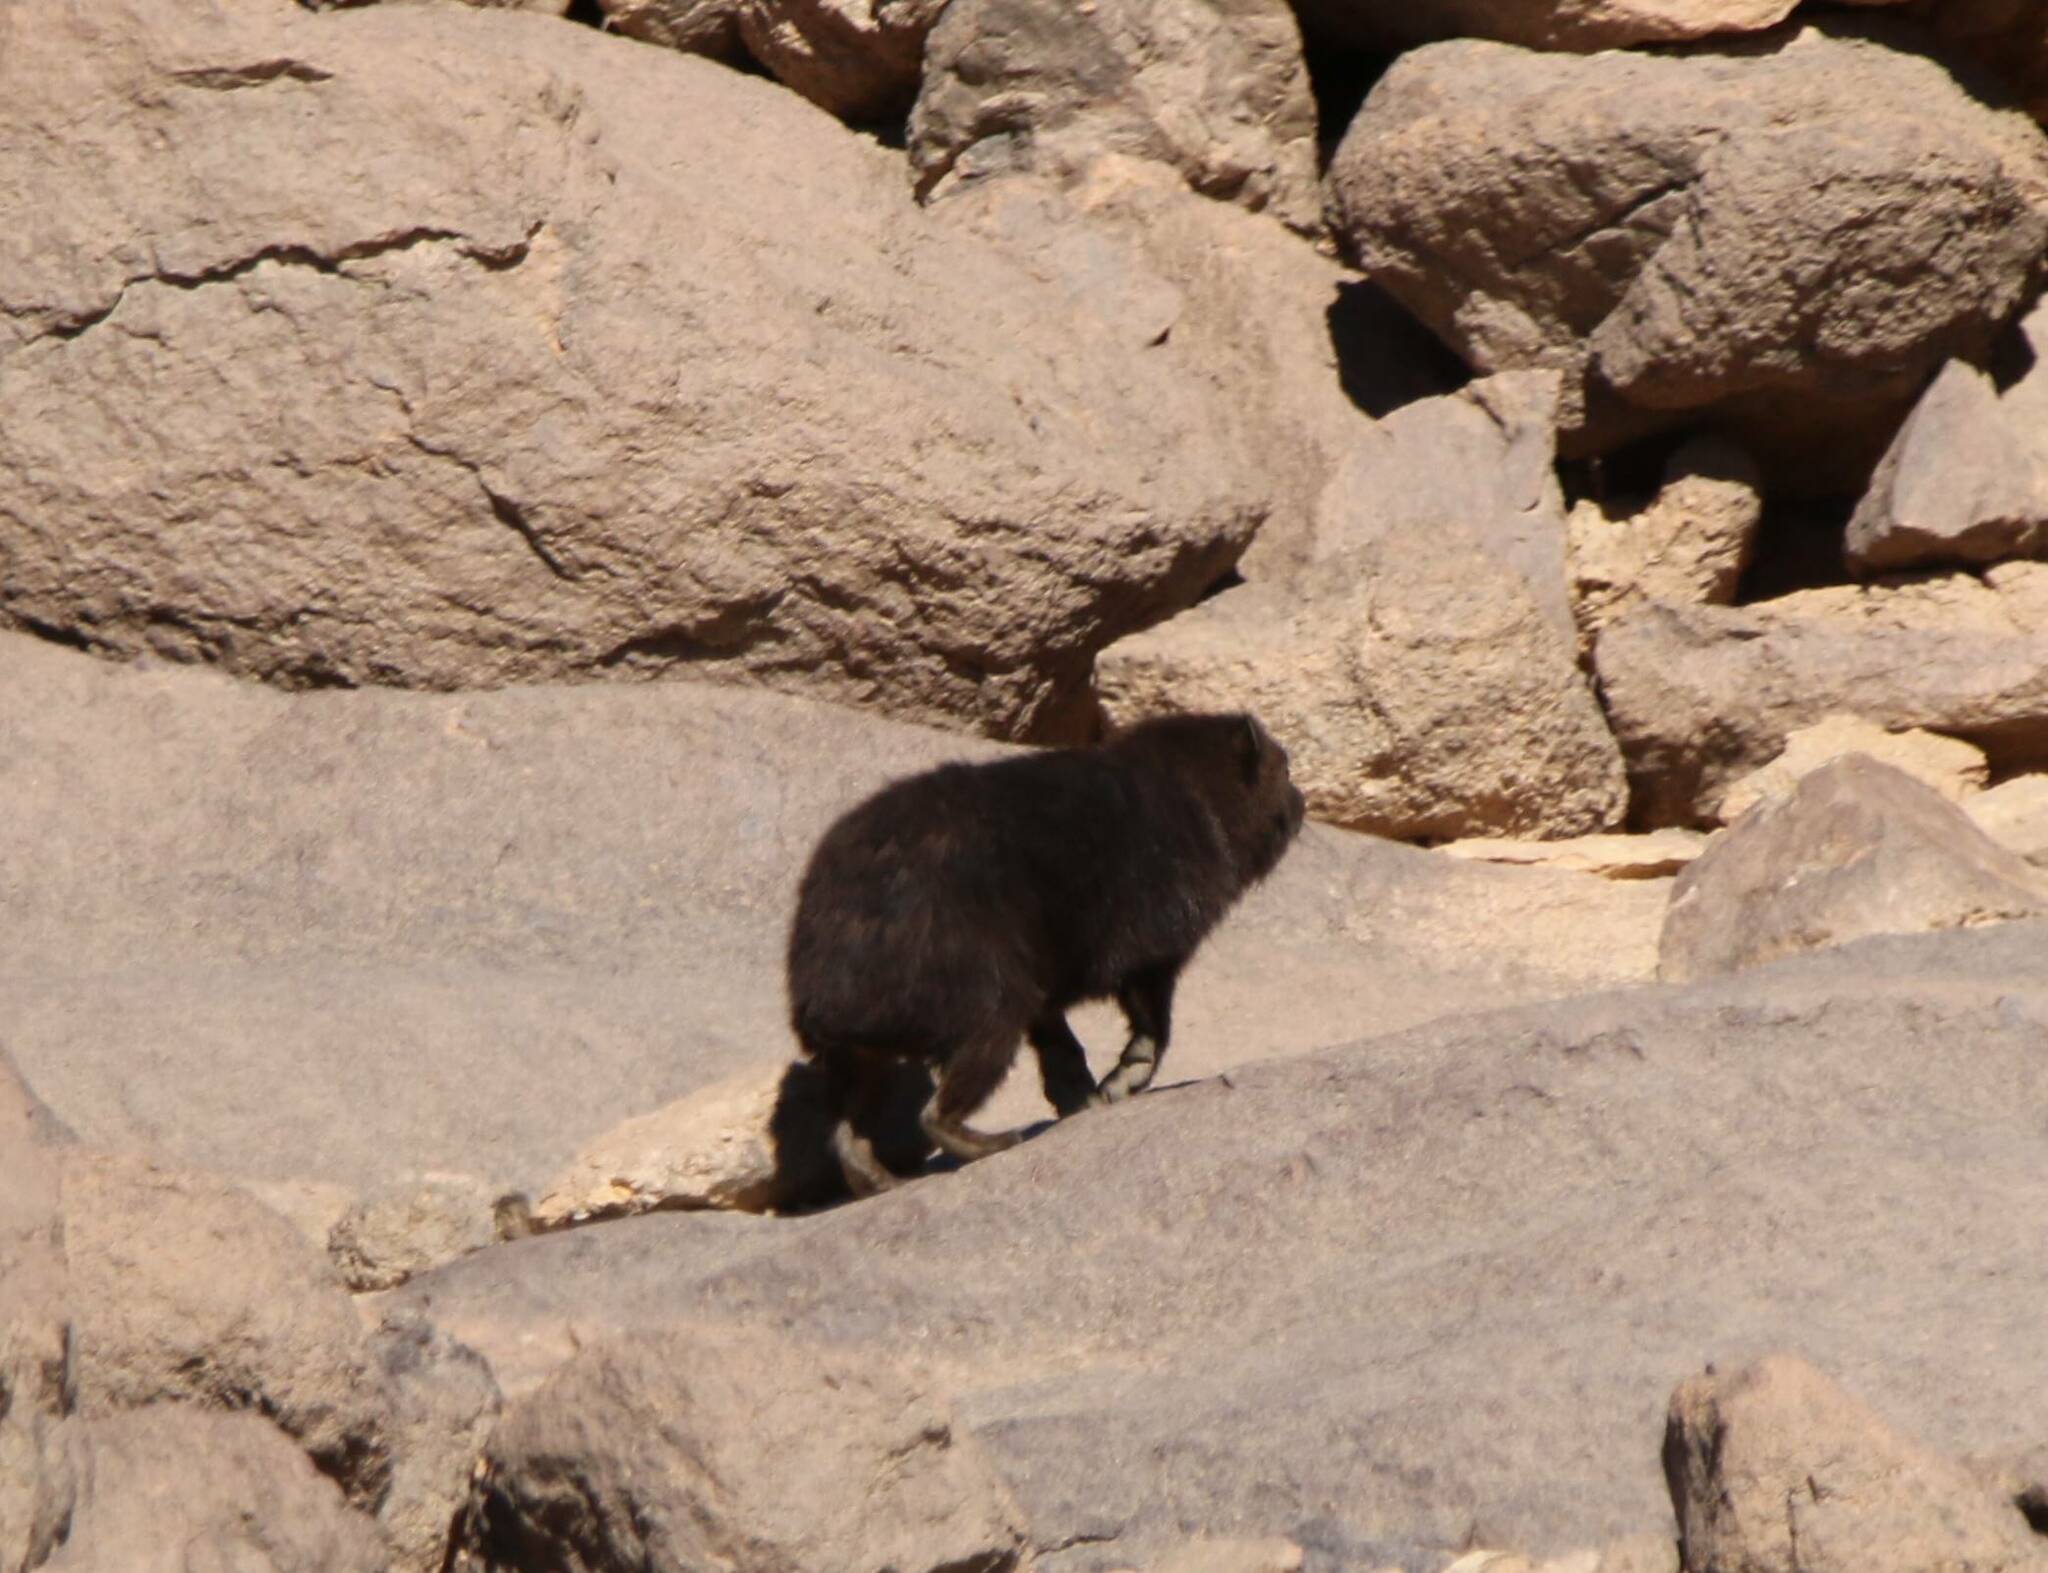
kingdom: Animalia
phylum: Chordata
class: Mammalia
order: Hyracoidea
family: Procaviidae
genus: Procavia
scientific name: Procavia capensis
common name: Rock hyrax
